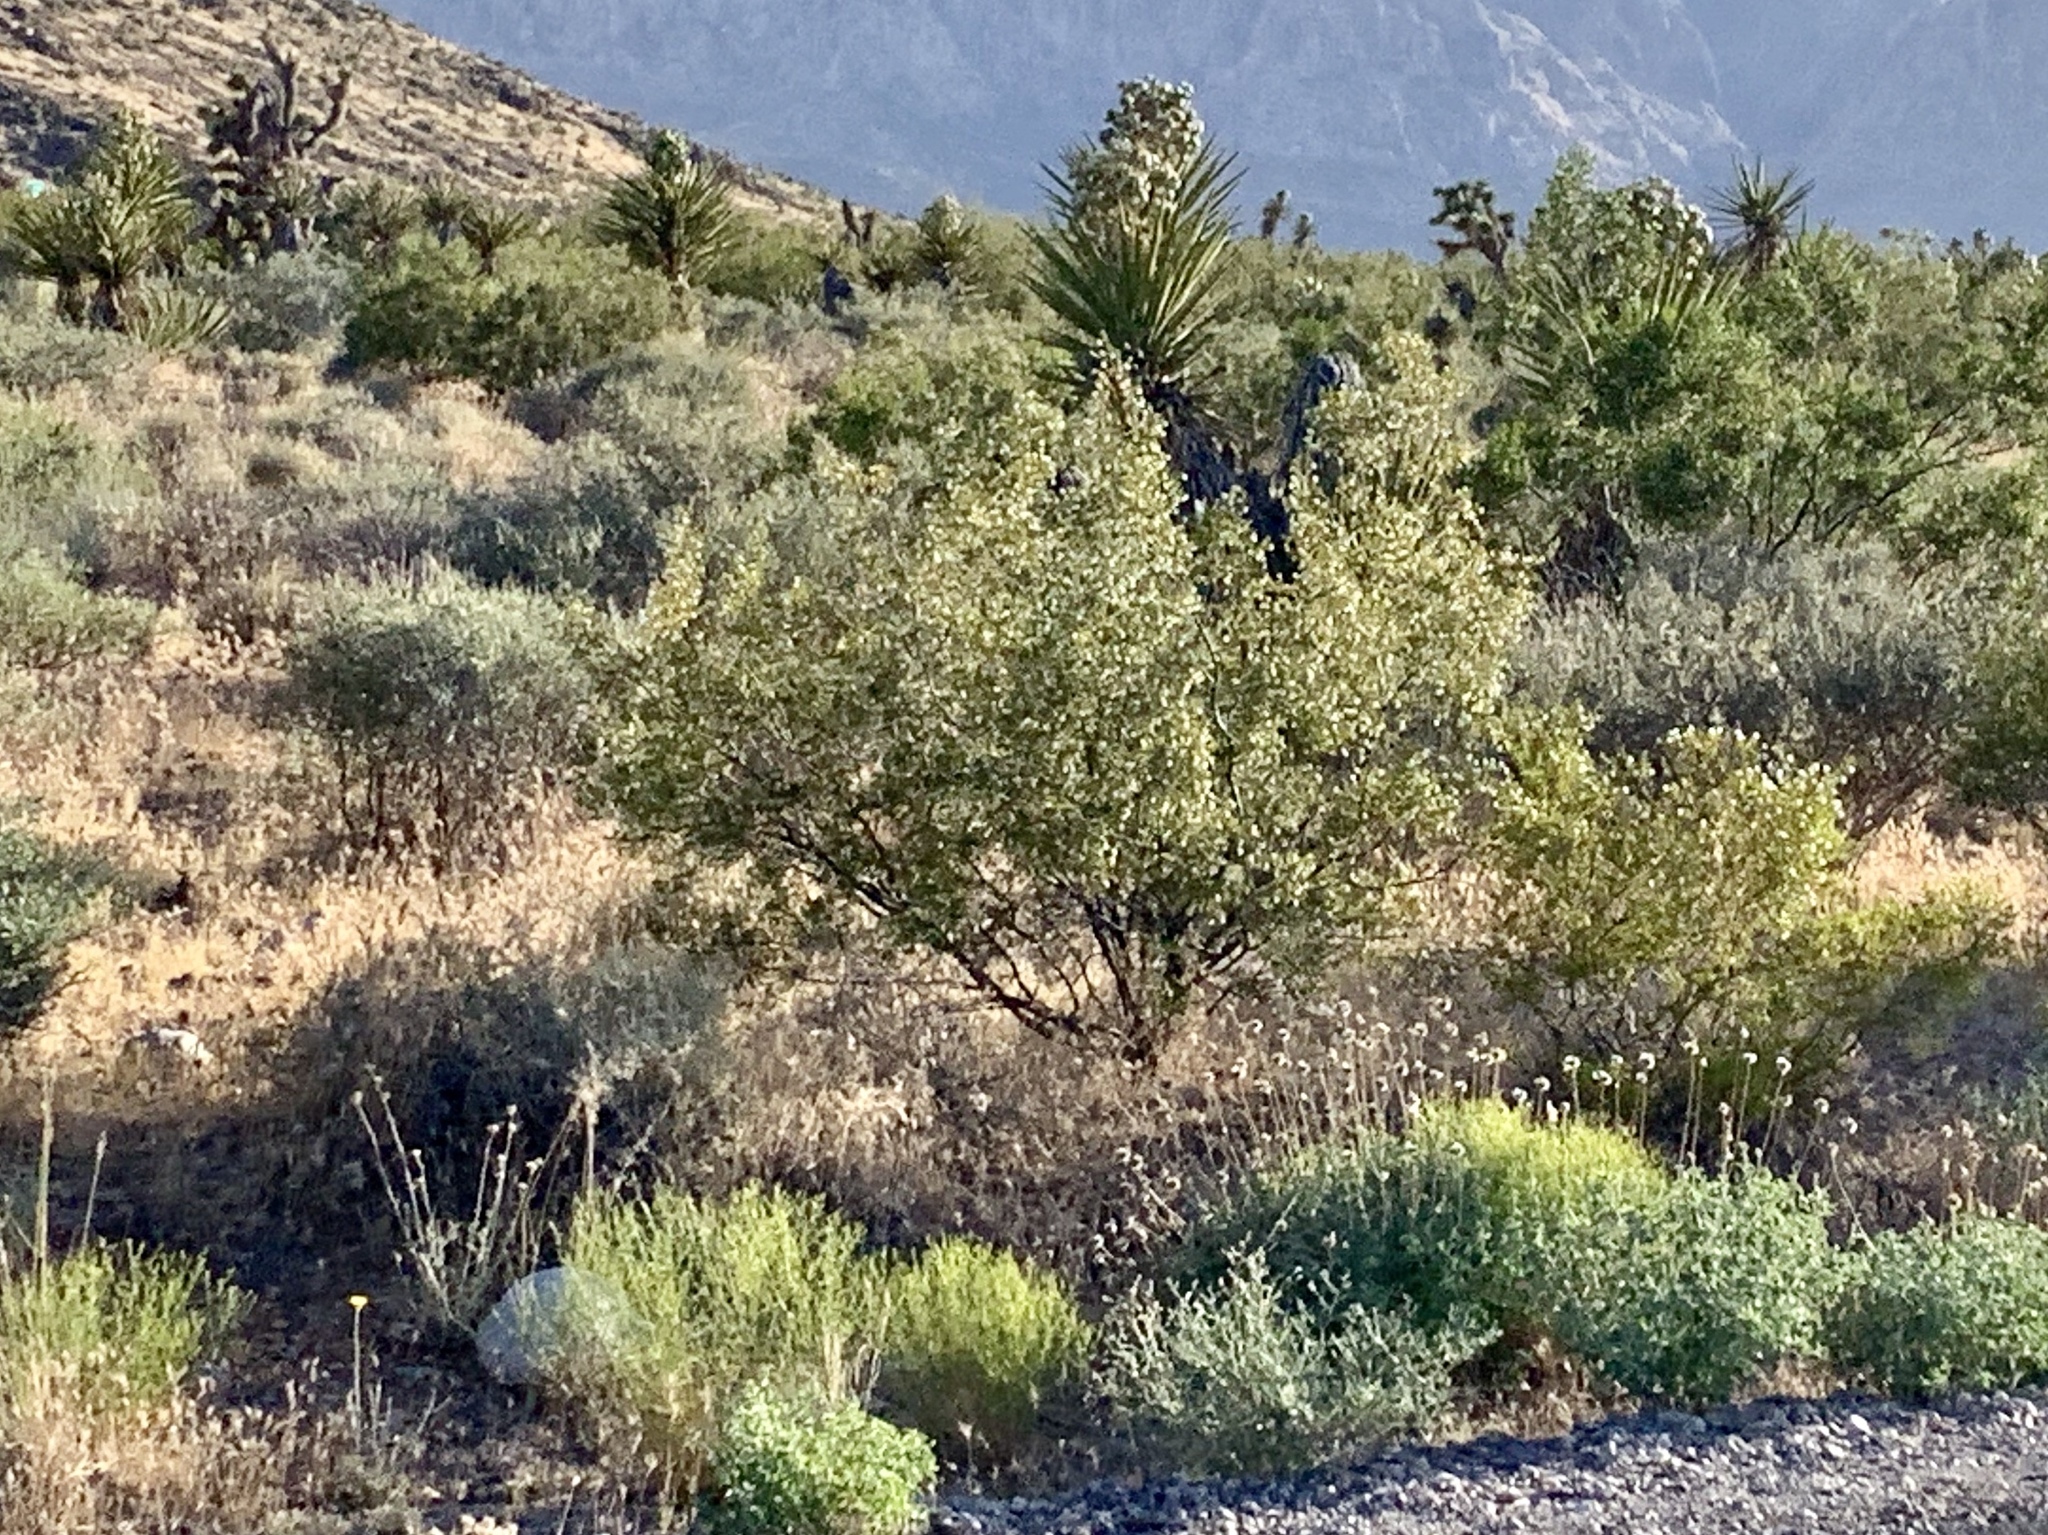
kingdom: Plantae
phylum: Tracheophyta
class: Magnoliopsida
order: Zygophyllales
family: Zygophyllaceae
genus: Larrea
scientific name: Larrea tridentata
